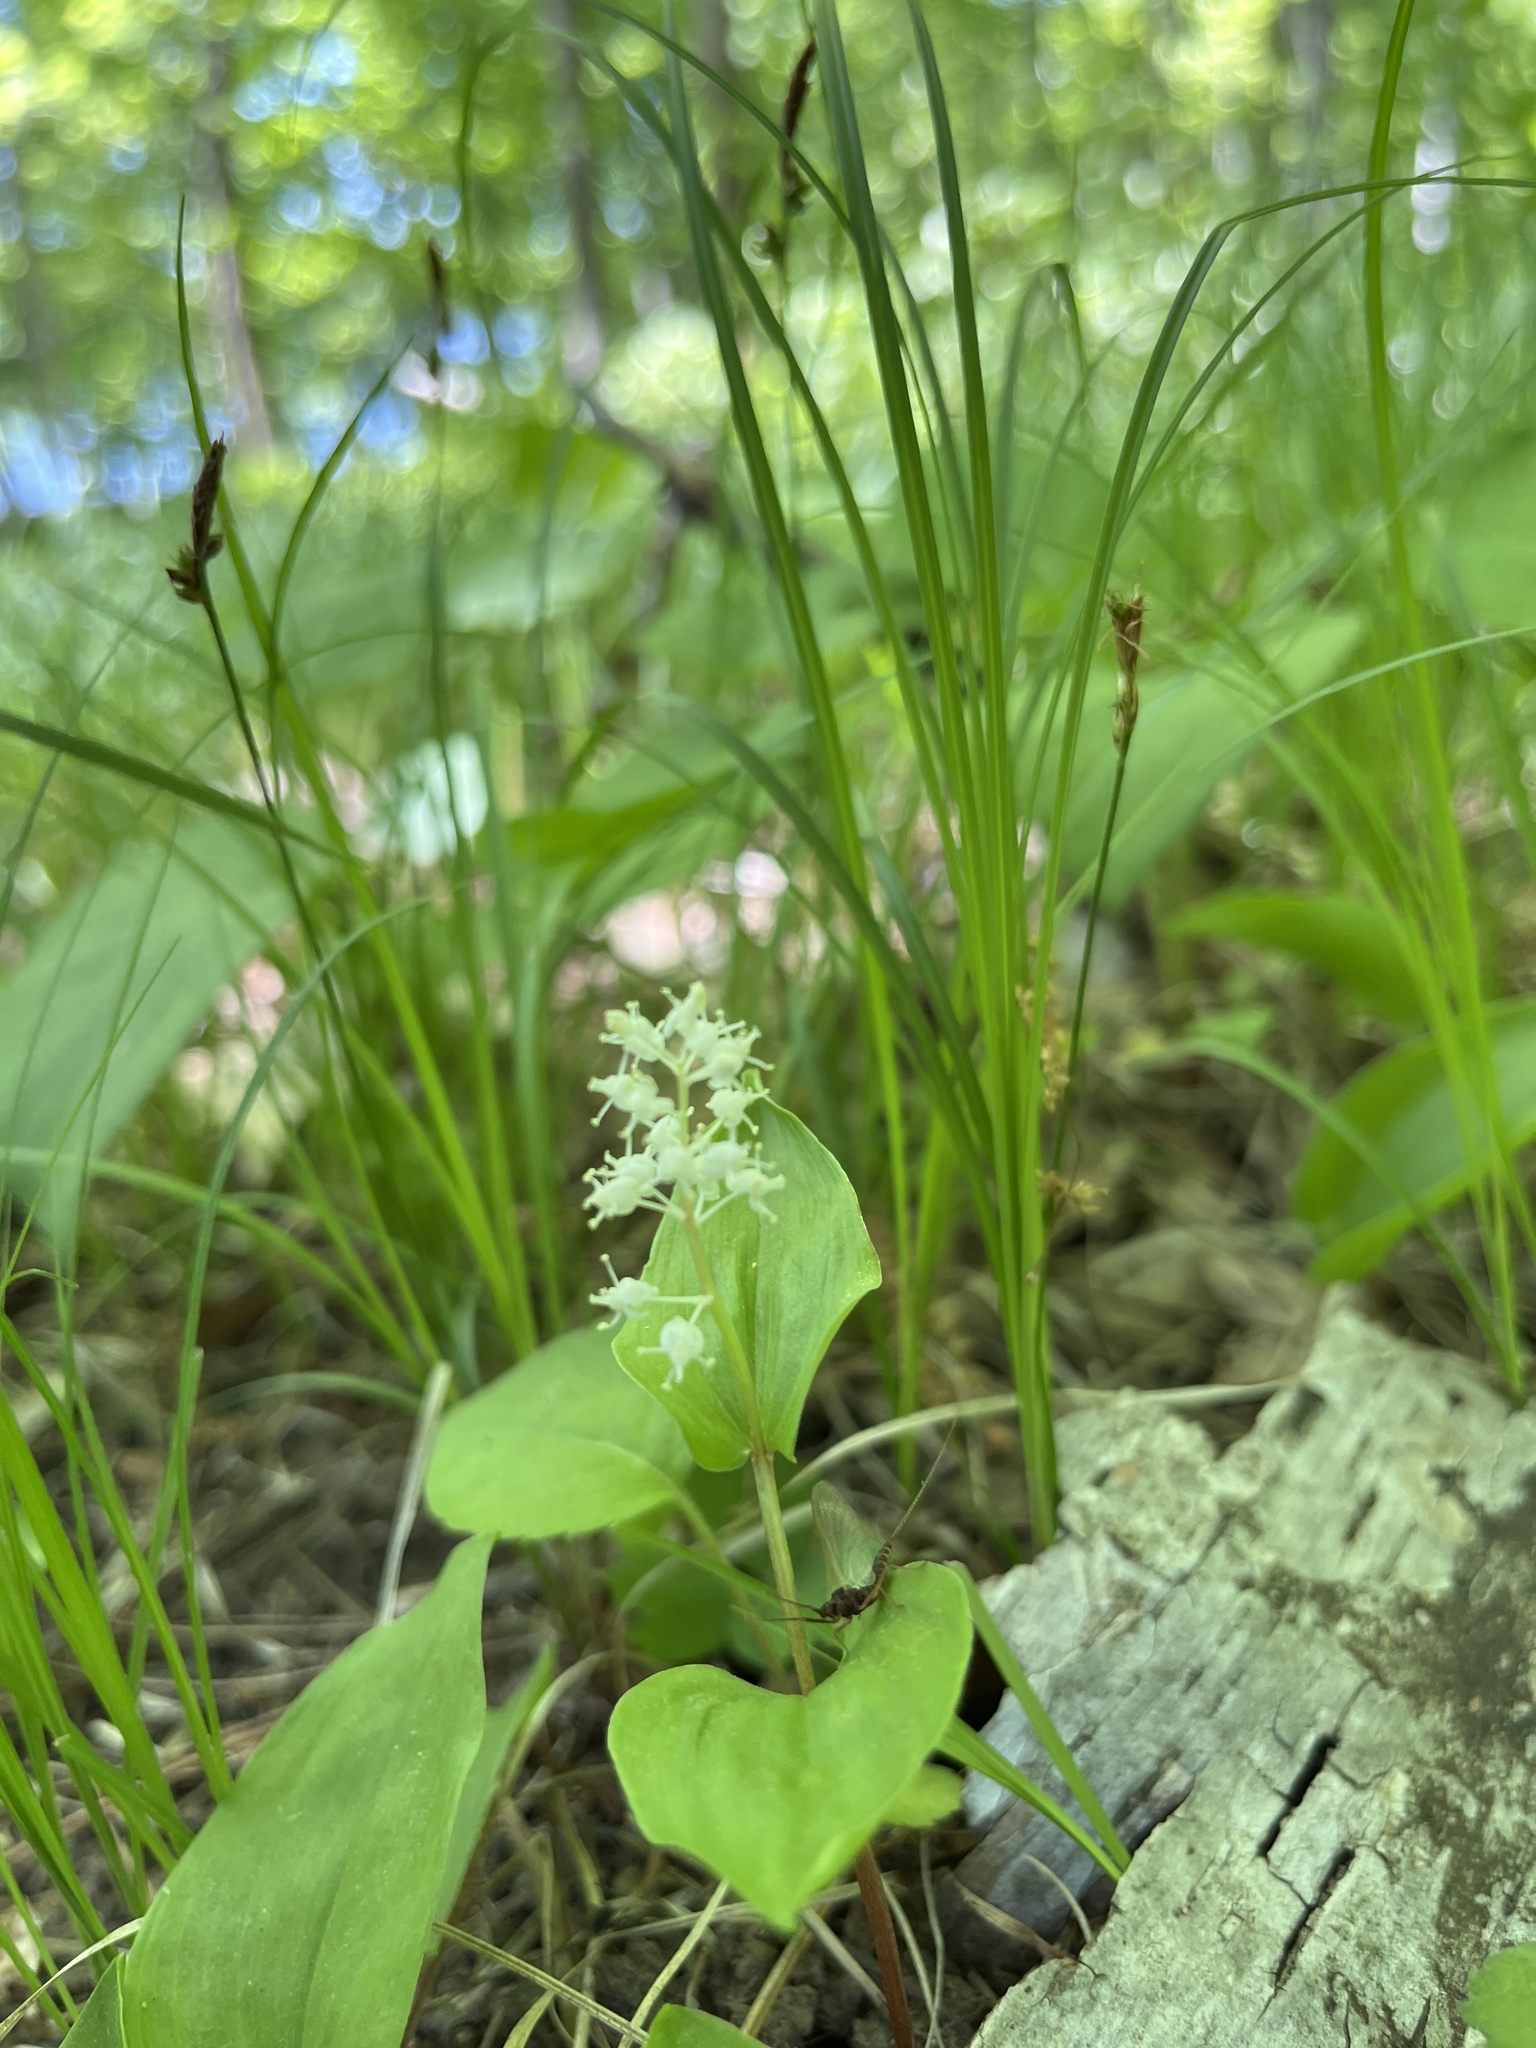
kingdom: Plantae
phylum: Tracheophyta
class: Liliopsida
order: Asparagales
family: Asparagaceae
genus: Maianthemum
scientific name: Maianthemum canadense
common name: False lily-of-the-valley
